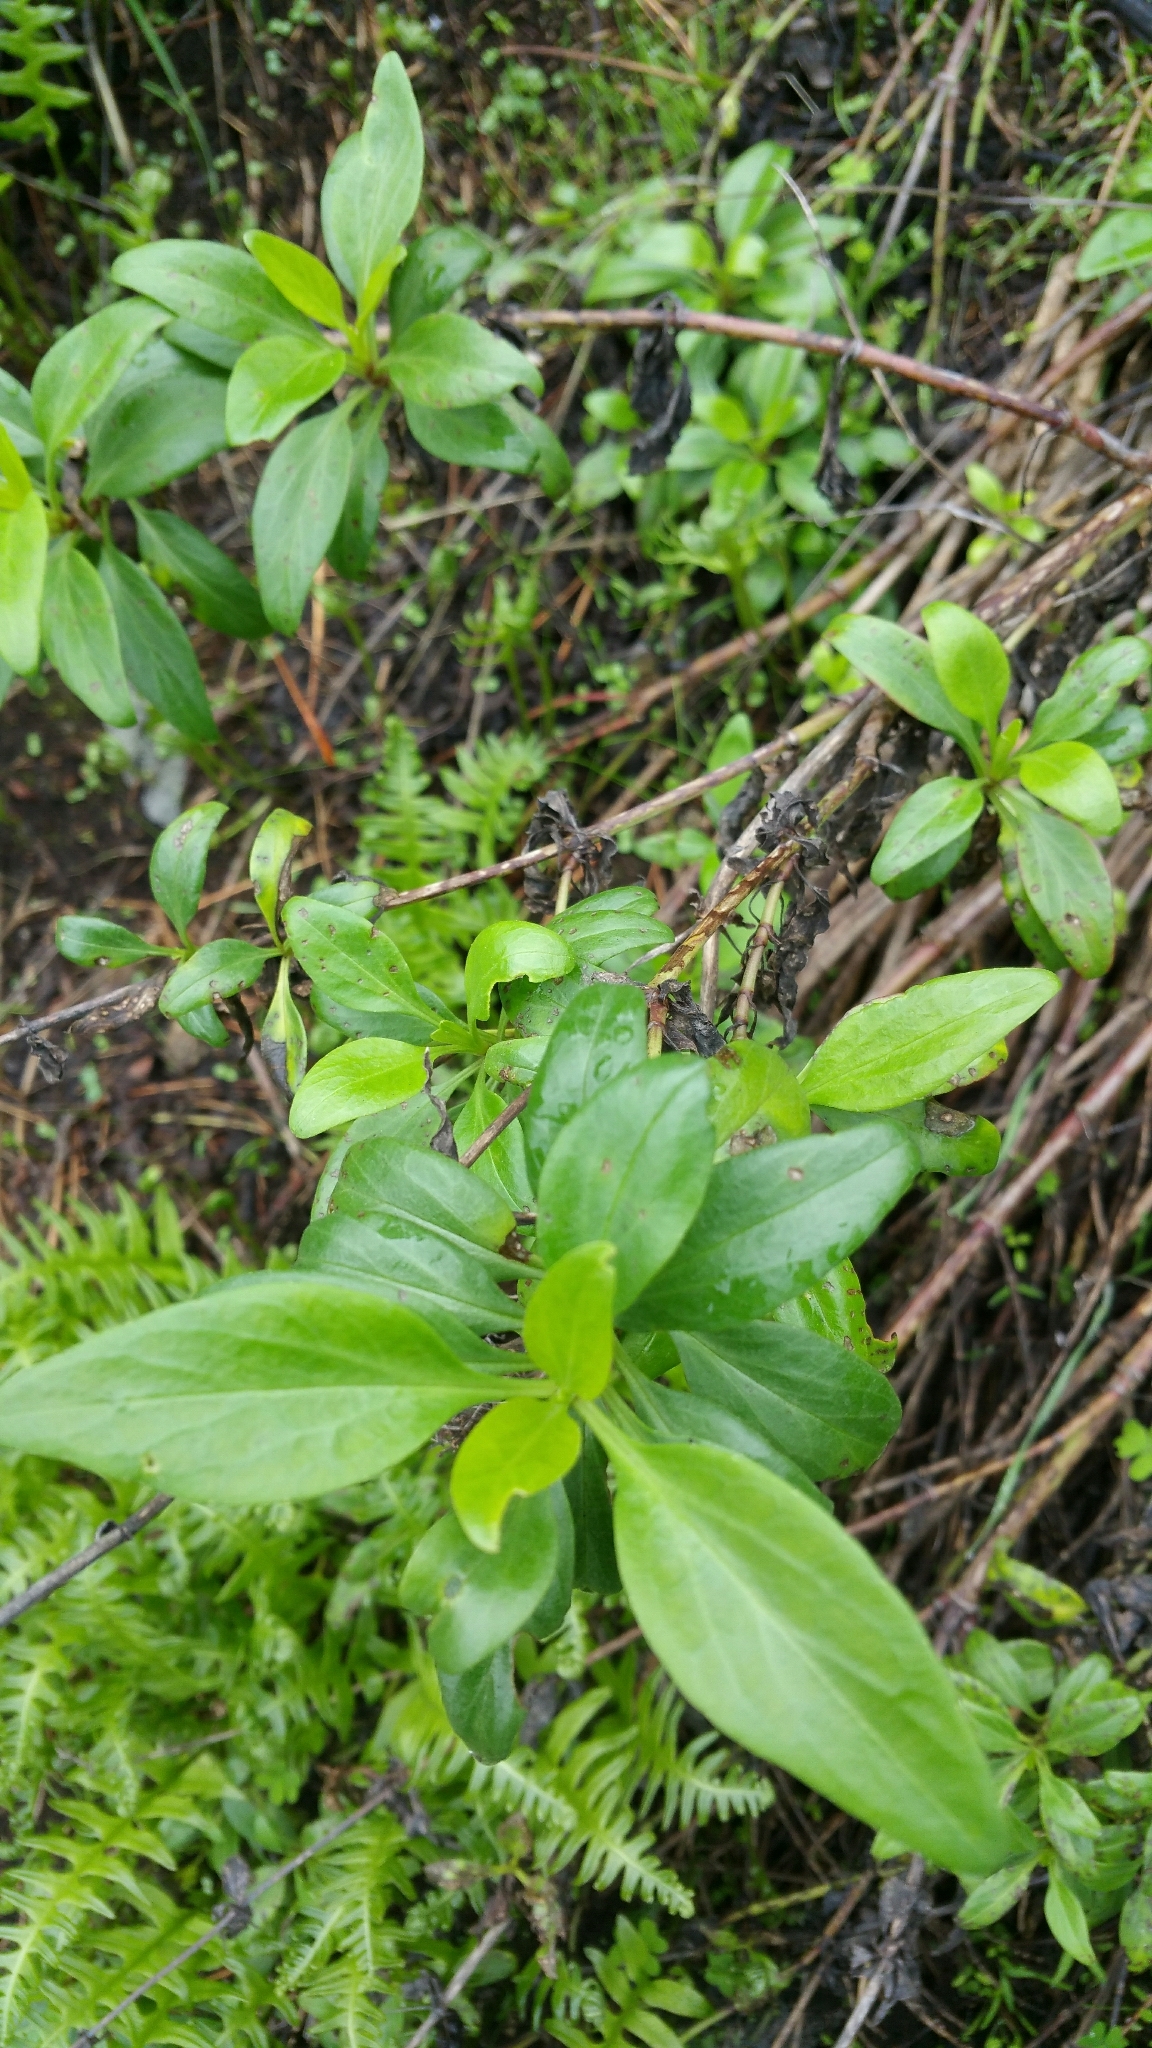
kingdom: Plantae
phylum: Tracheophyta
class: Magnoliopsida
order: Dipsacales
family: Caprifoliaceae
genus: Centranthus
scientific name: Centranthus ruber
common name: Red valerian
